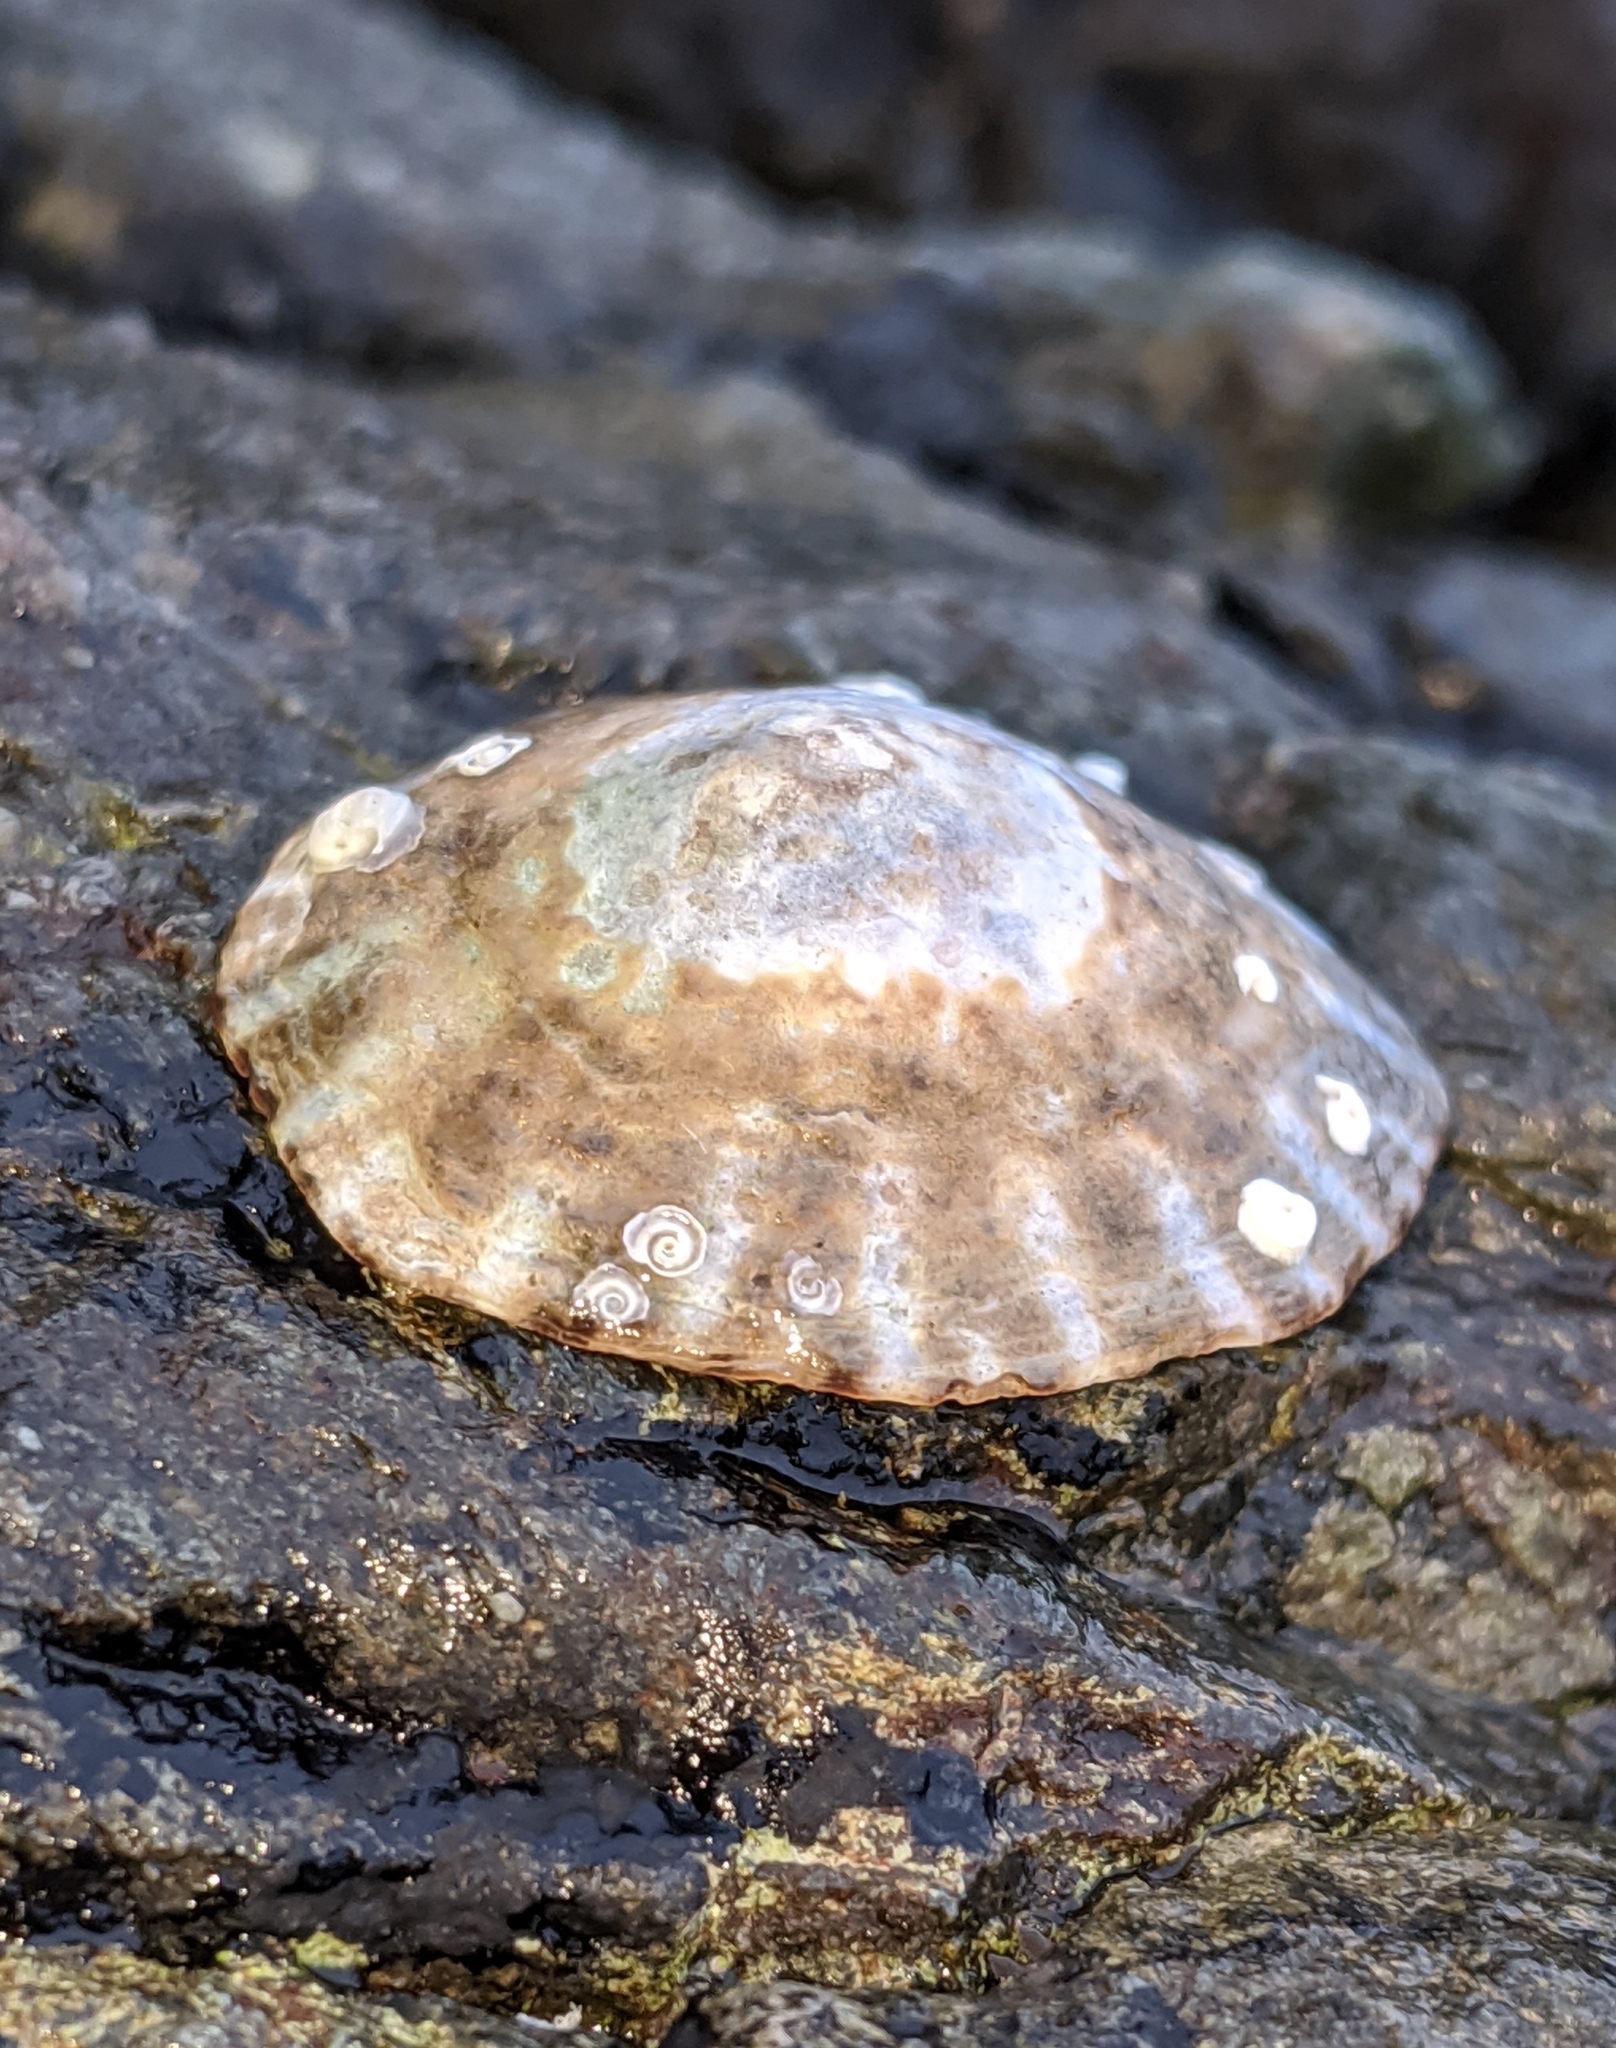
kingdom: Animalia
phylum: Mollusca
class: Gastropoda
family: Lottiidae
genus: Lottia
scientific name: Lottia scutum
